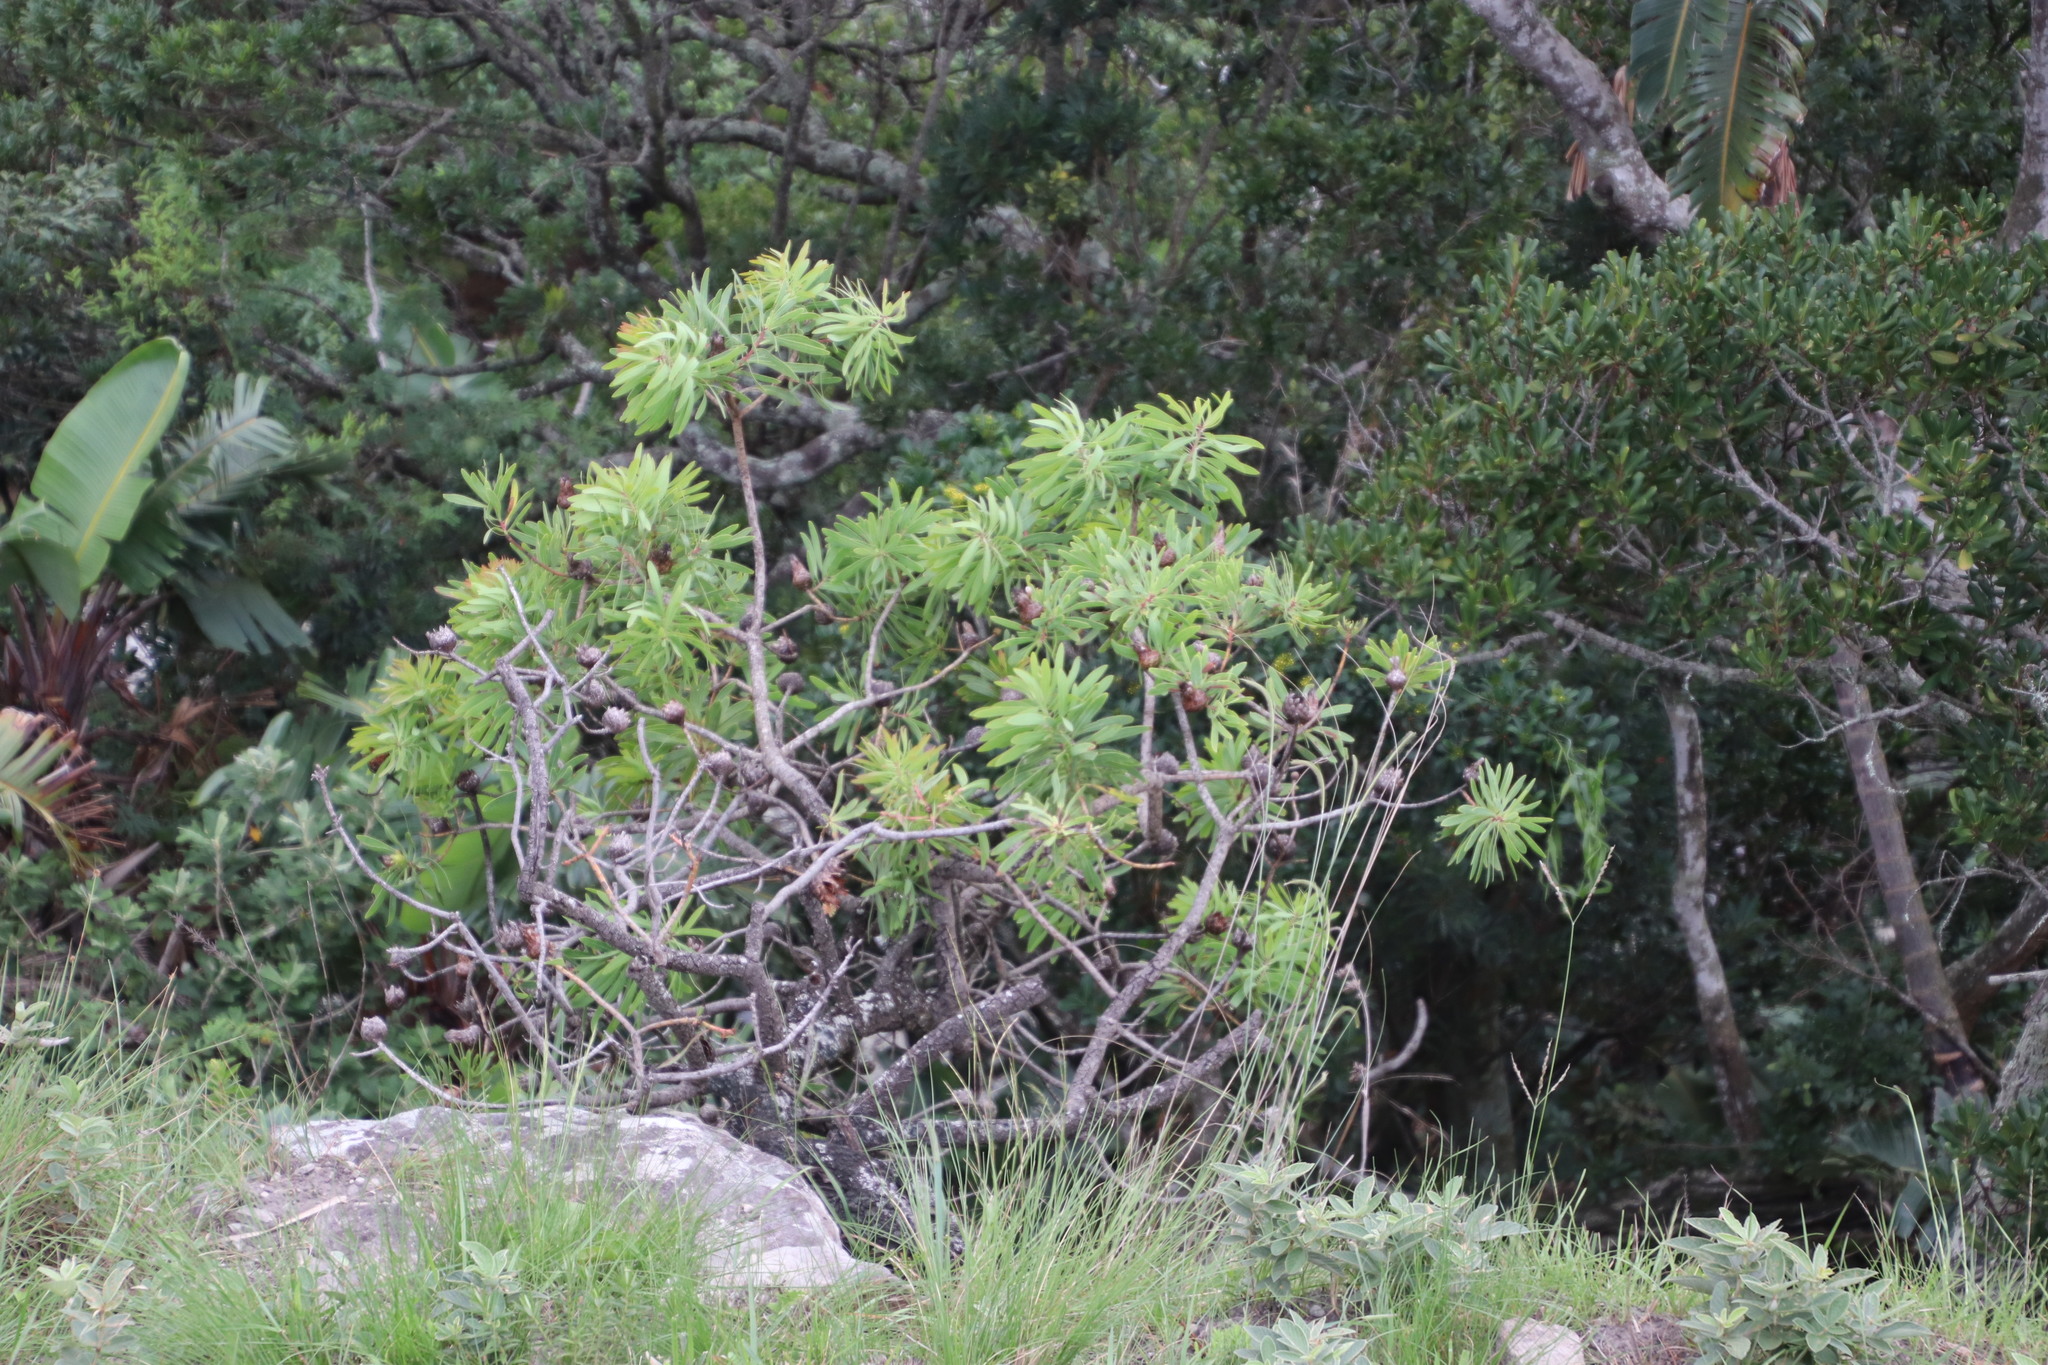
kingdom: Plantae
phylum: Tracheophyta
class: Magnoliopsida
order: Proteales
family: Proteaceae
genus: Protea
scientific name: Protea caffra
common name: Common sugarbush
